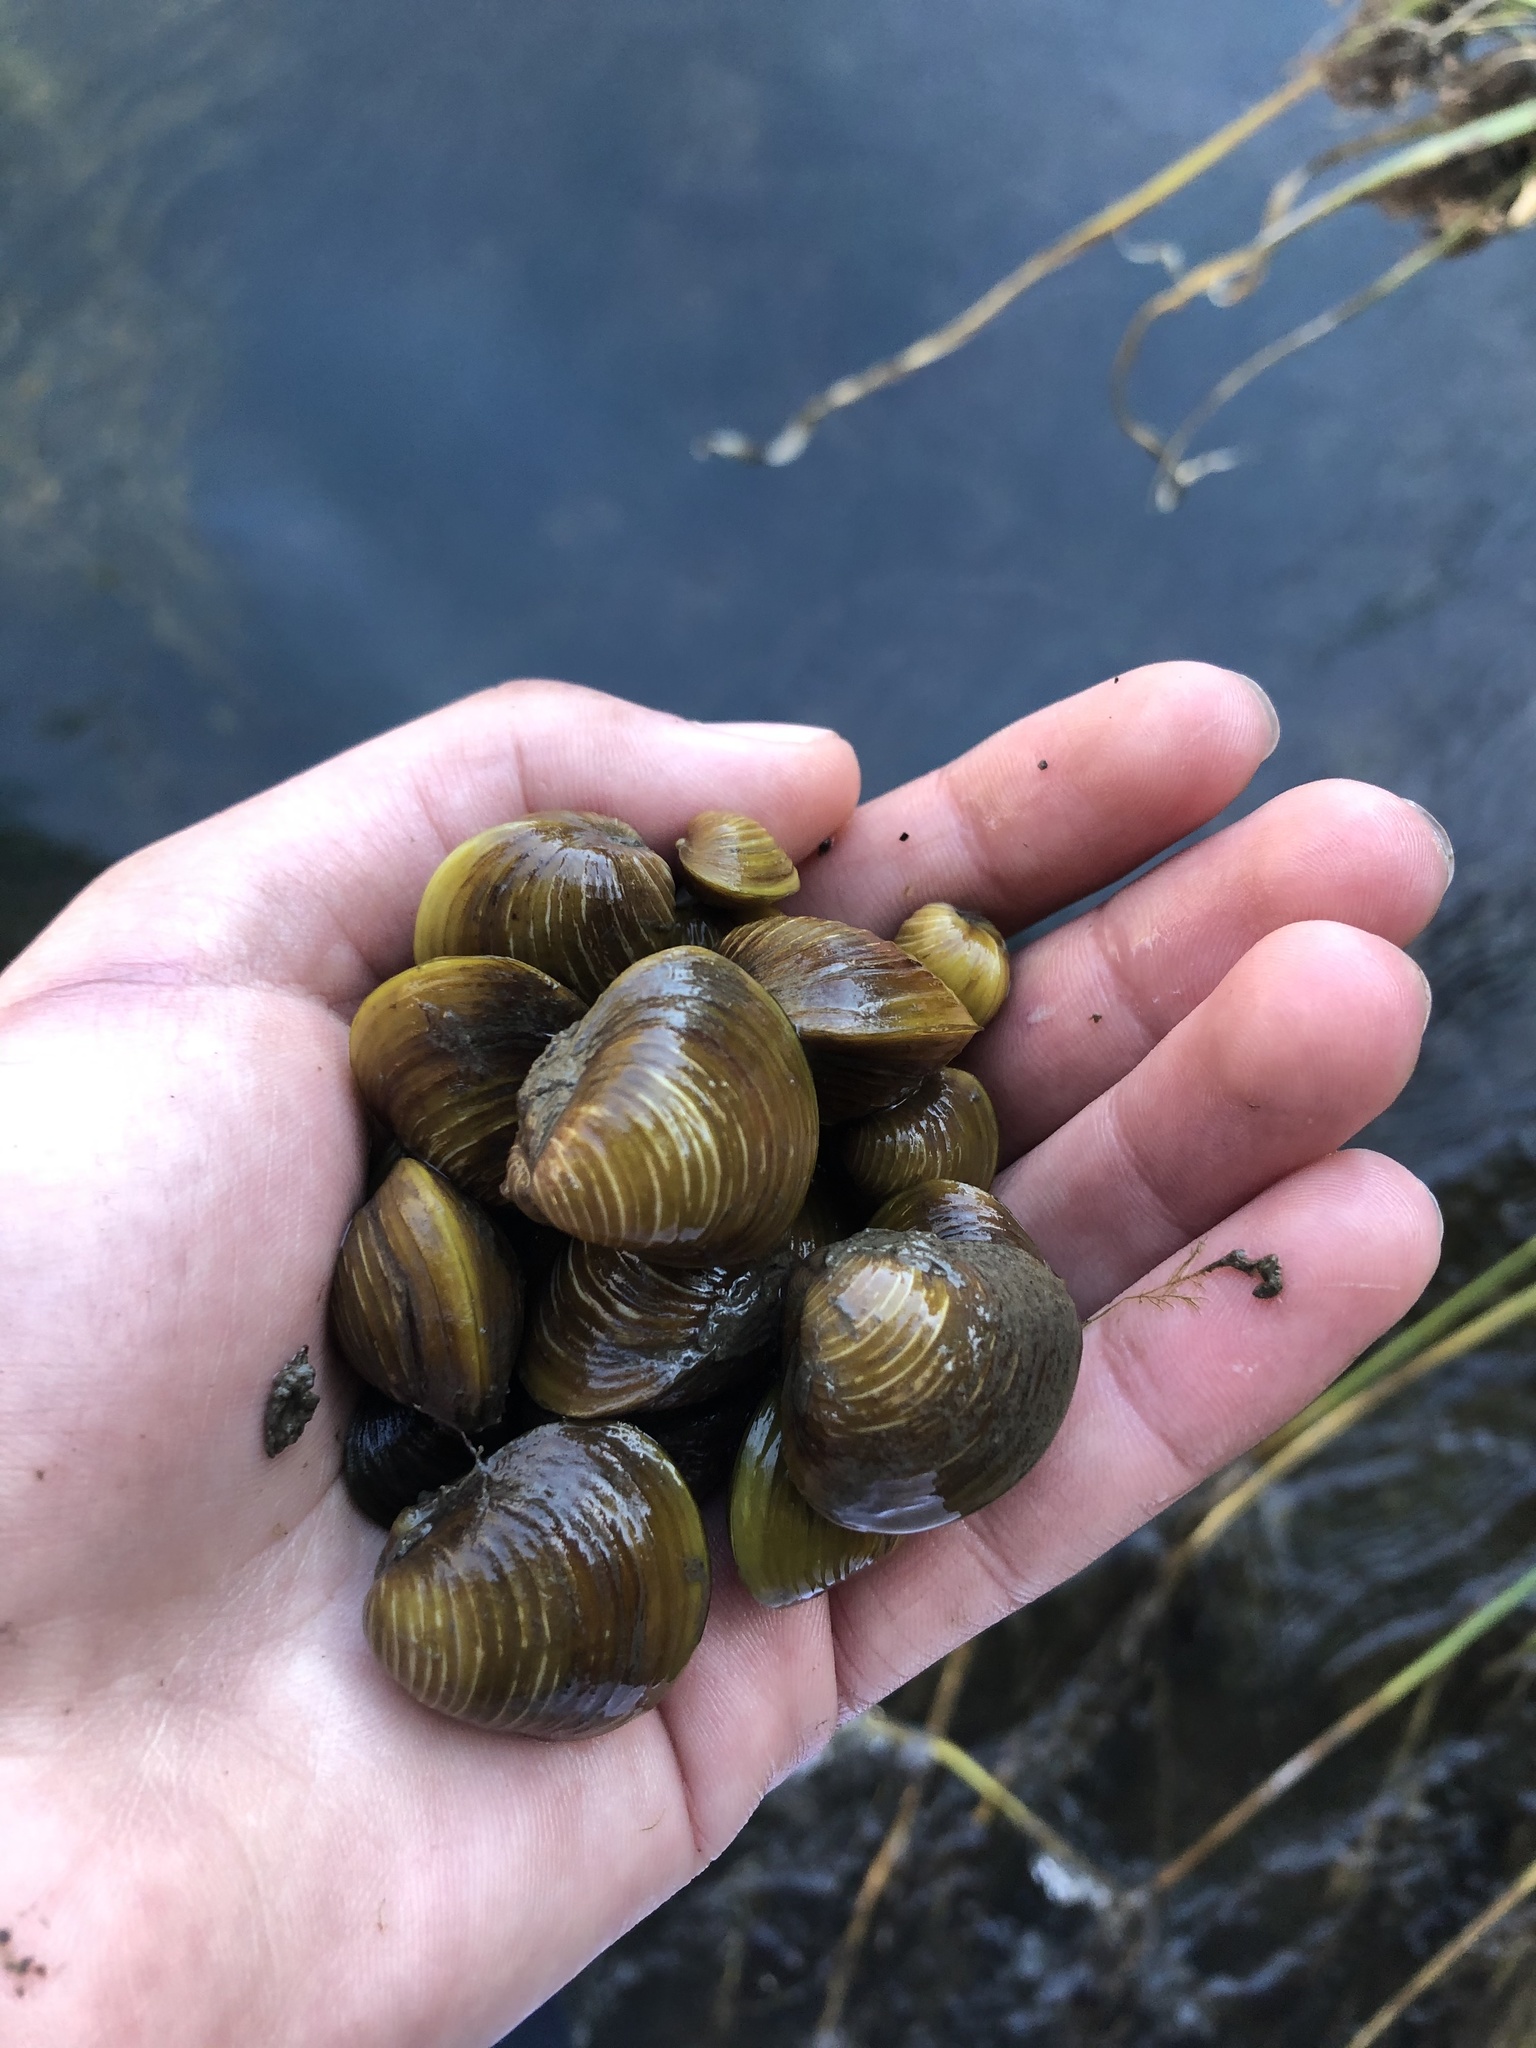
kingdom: Animalia
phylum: Mollusca
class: Bivalvia
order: Venerida
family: Cyrenidae
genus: Corbicula
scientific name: Corbicula fluminea
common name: Asian clam
